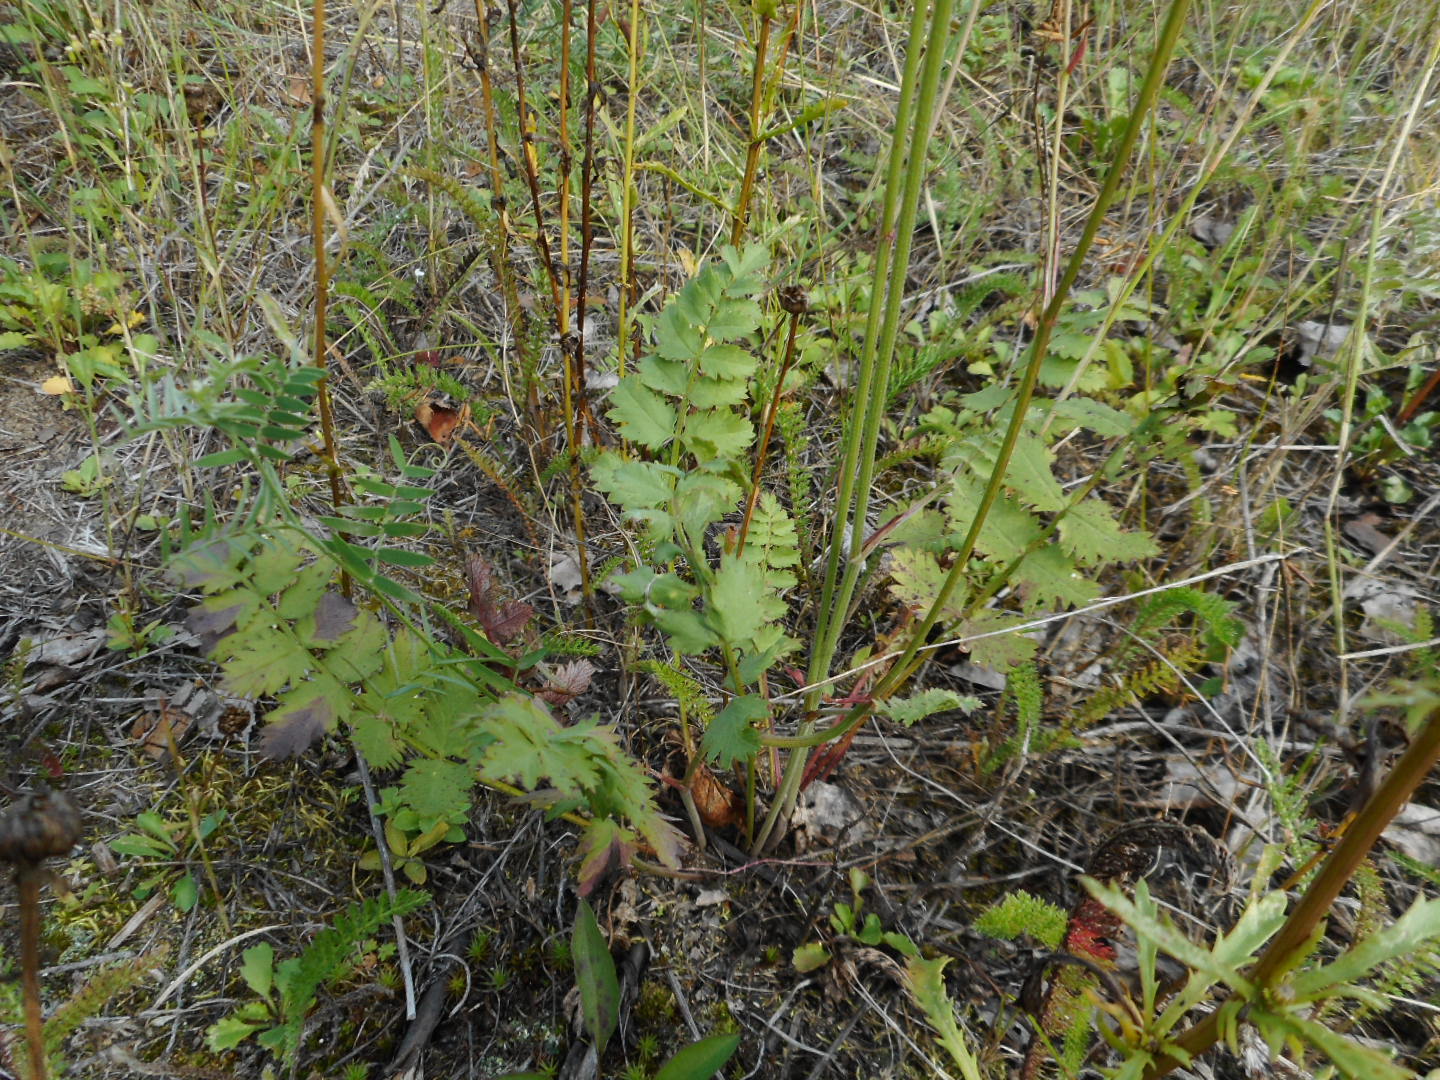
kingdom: Plantae
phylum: Tracheophyta
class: Magnoliopsida
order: Apiales
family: Apiaceae
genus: Pimpinella
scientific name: Pimpinella saxifraga
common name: Burnet-saxifrage
